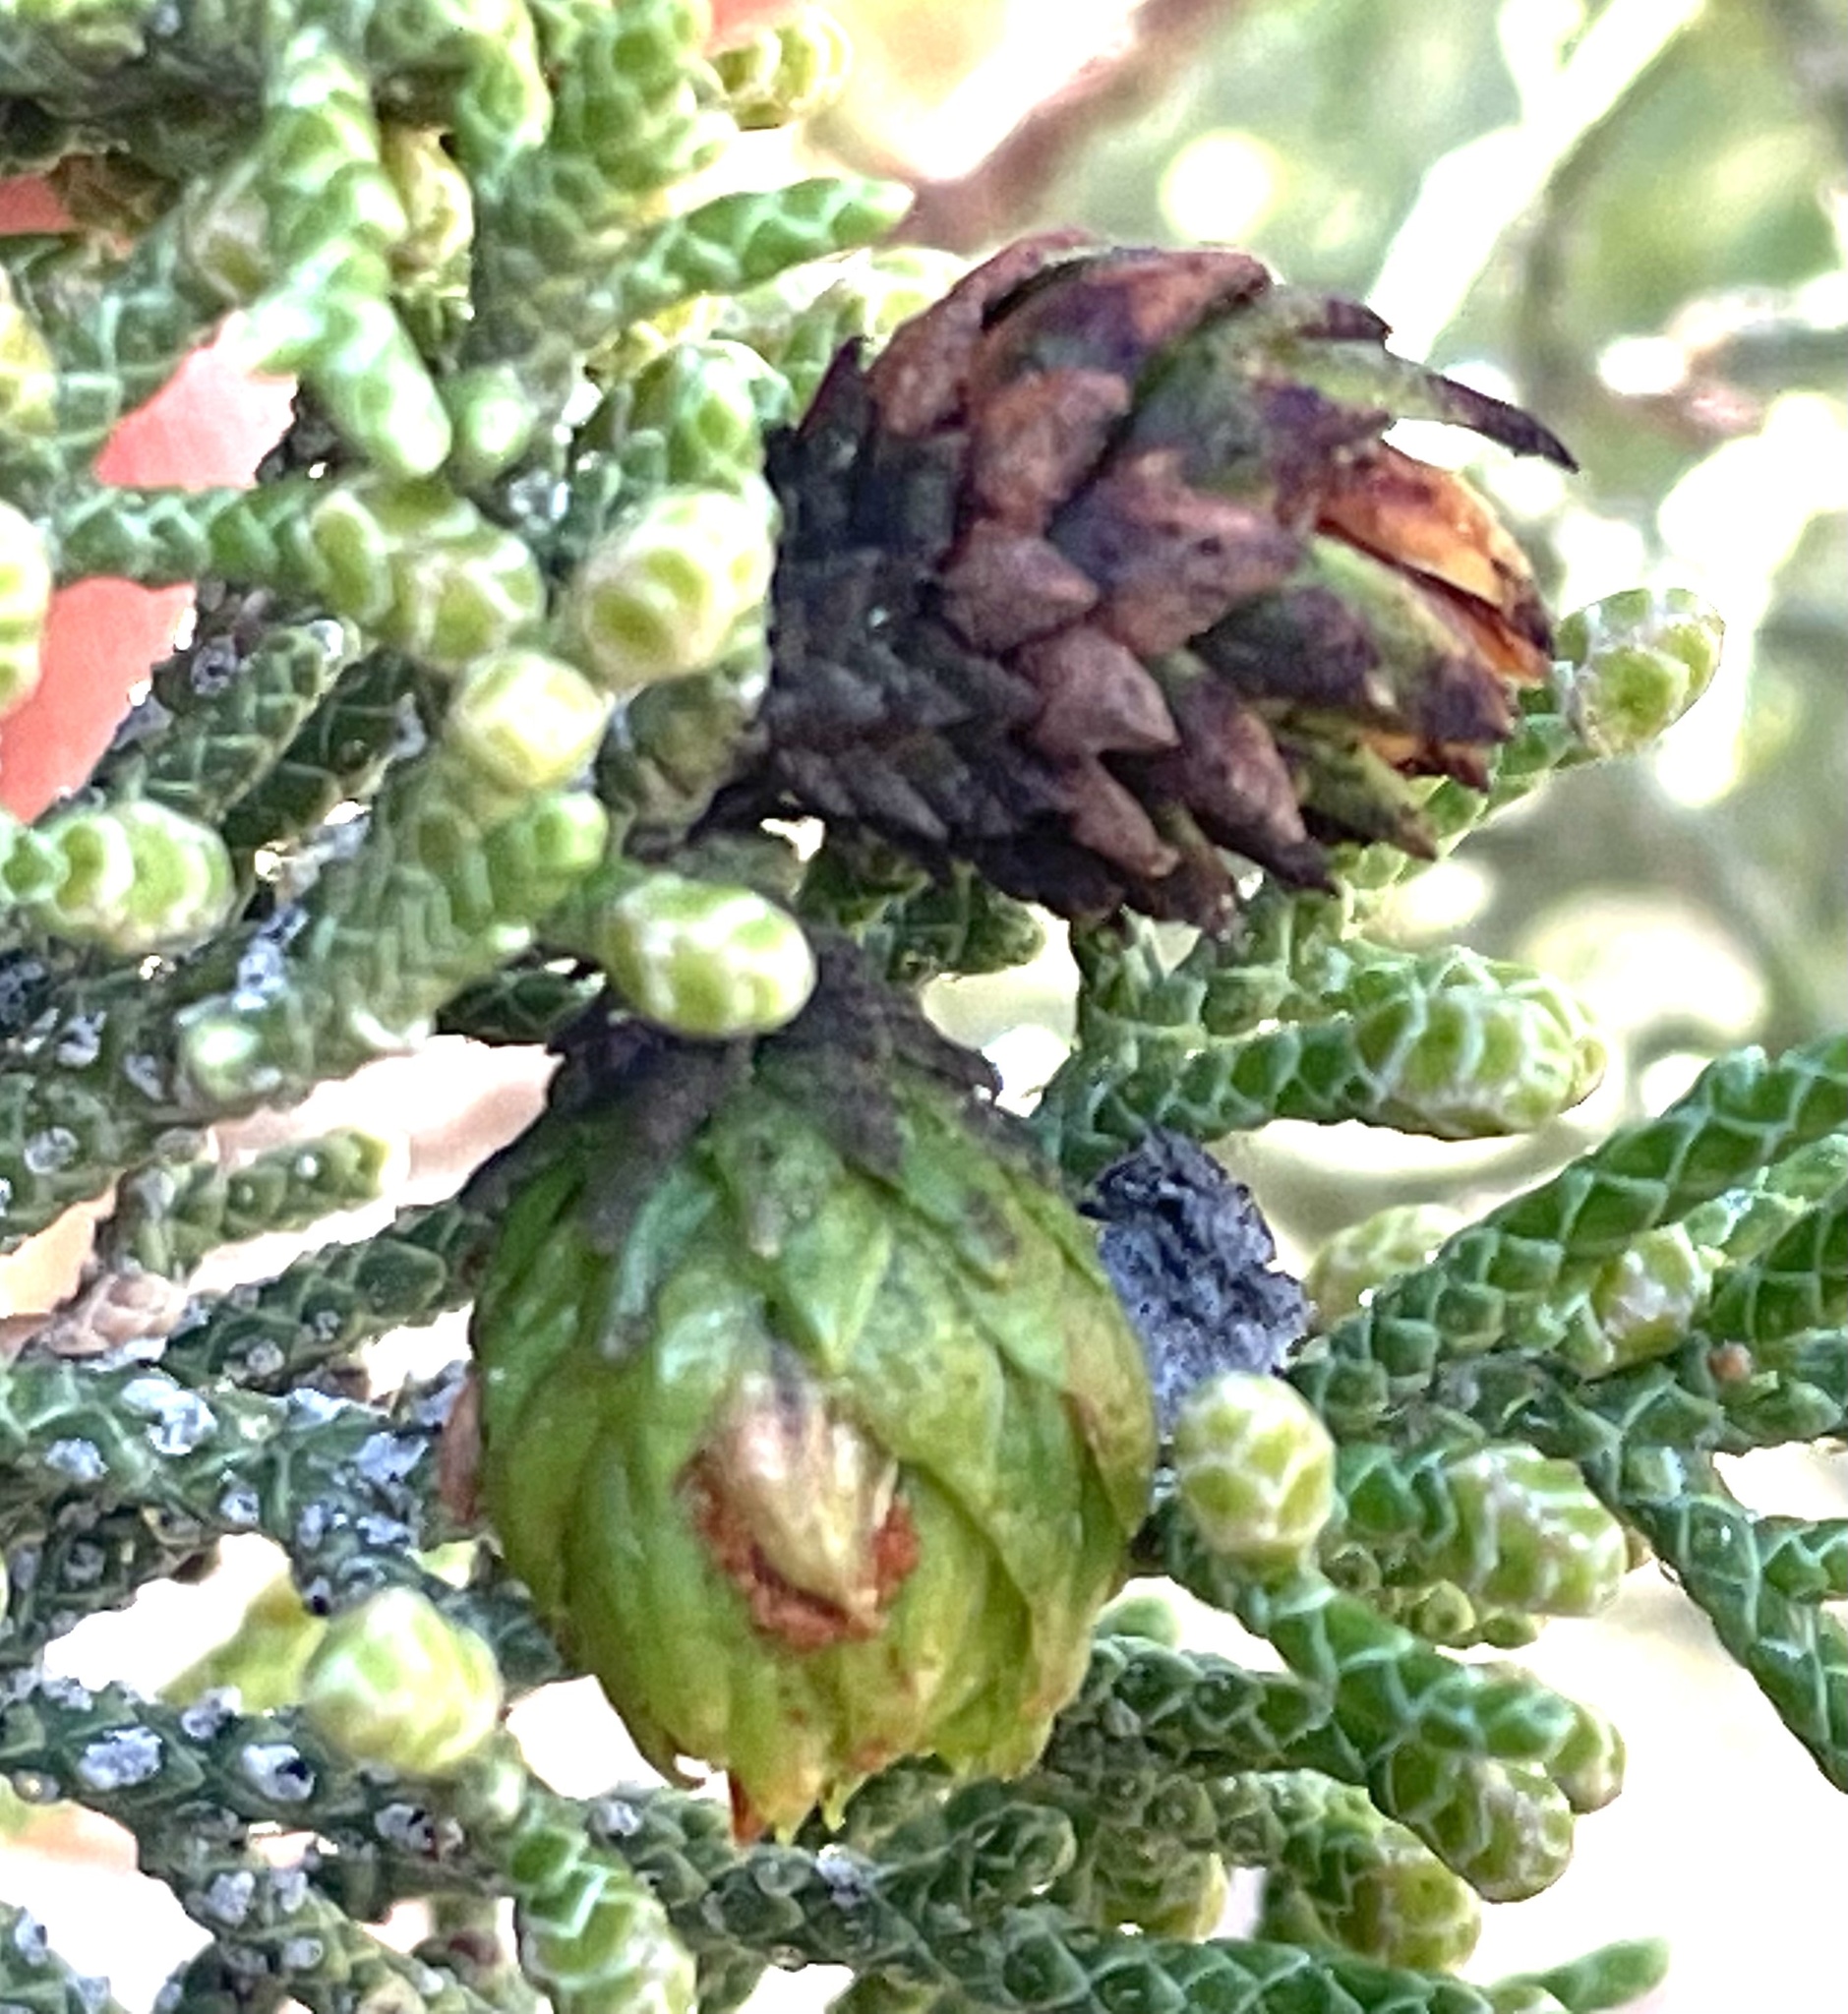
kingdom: Animalia
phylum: Arthropoda
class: Insecta
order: Diptera
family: Cecidomyiidae
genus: Walshomyia
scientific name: Walshomyia
